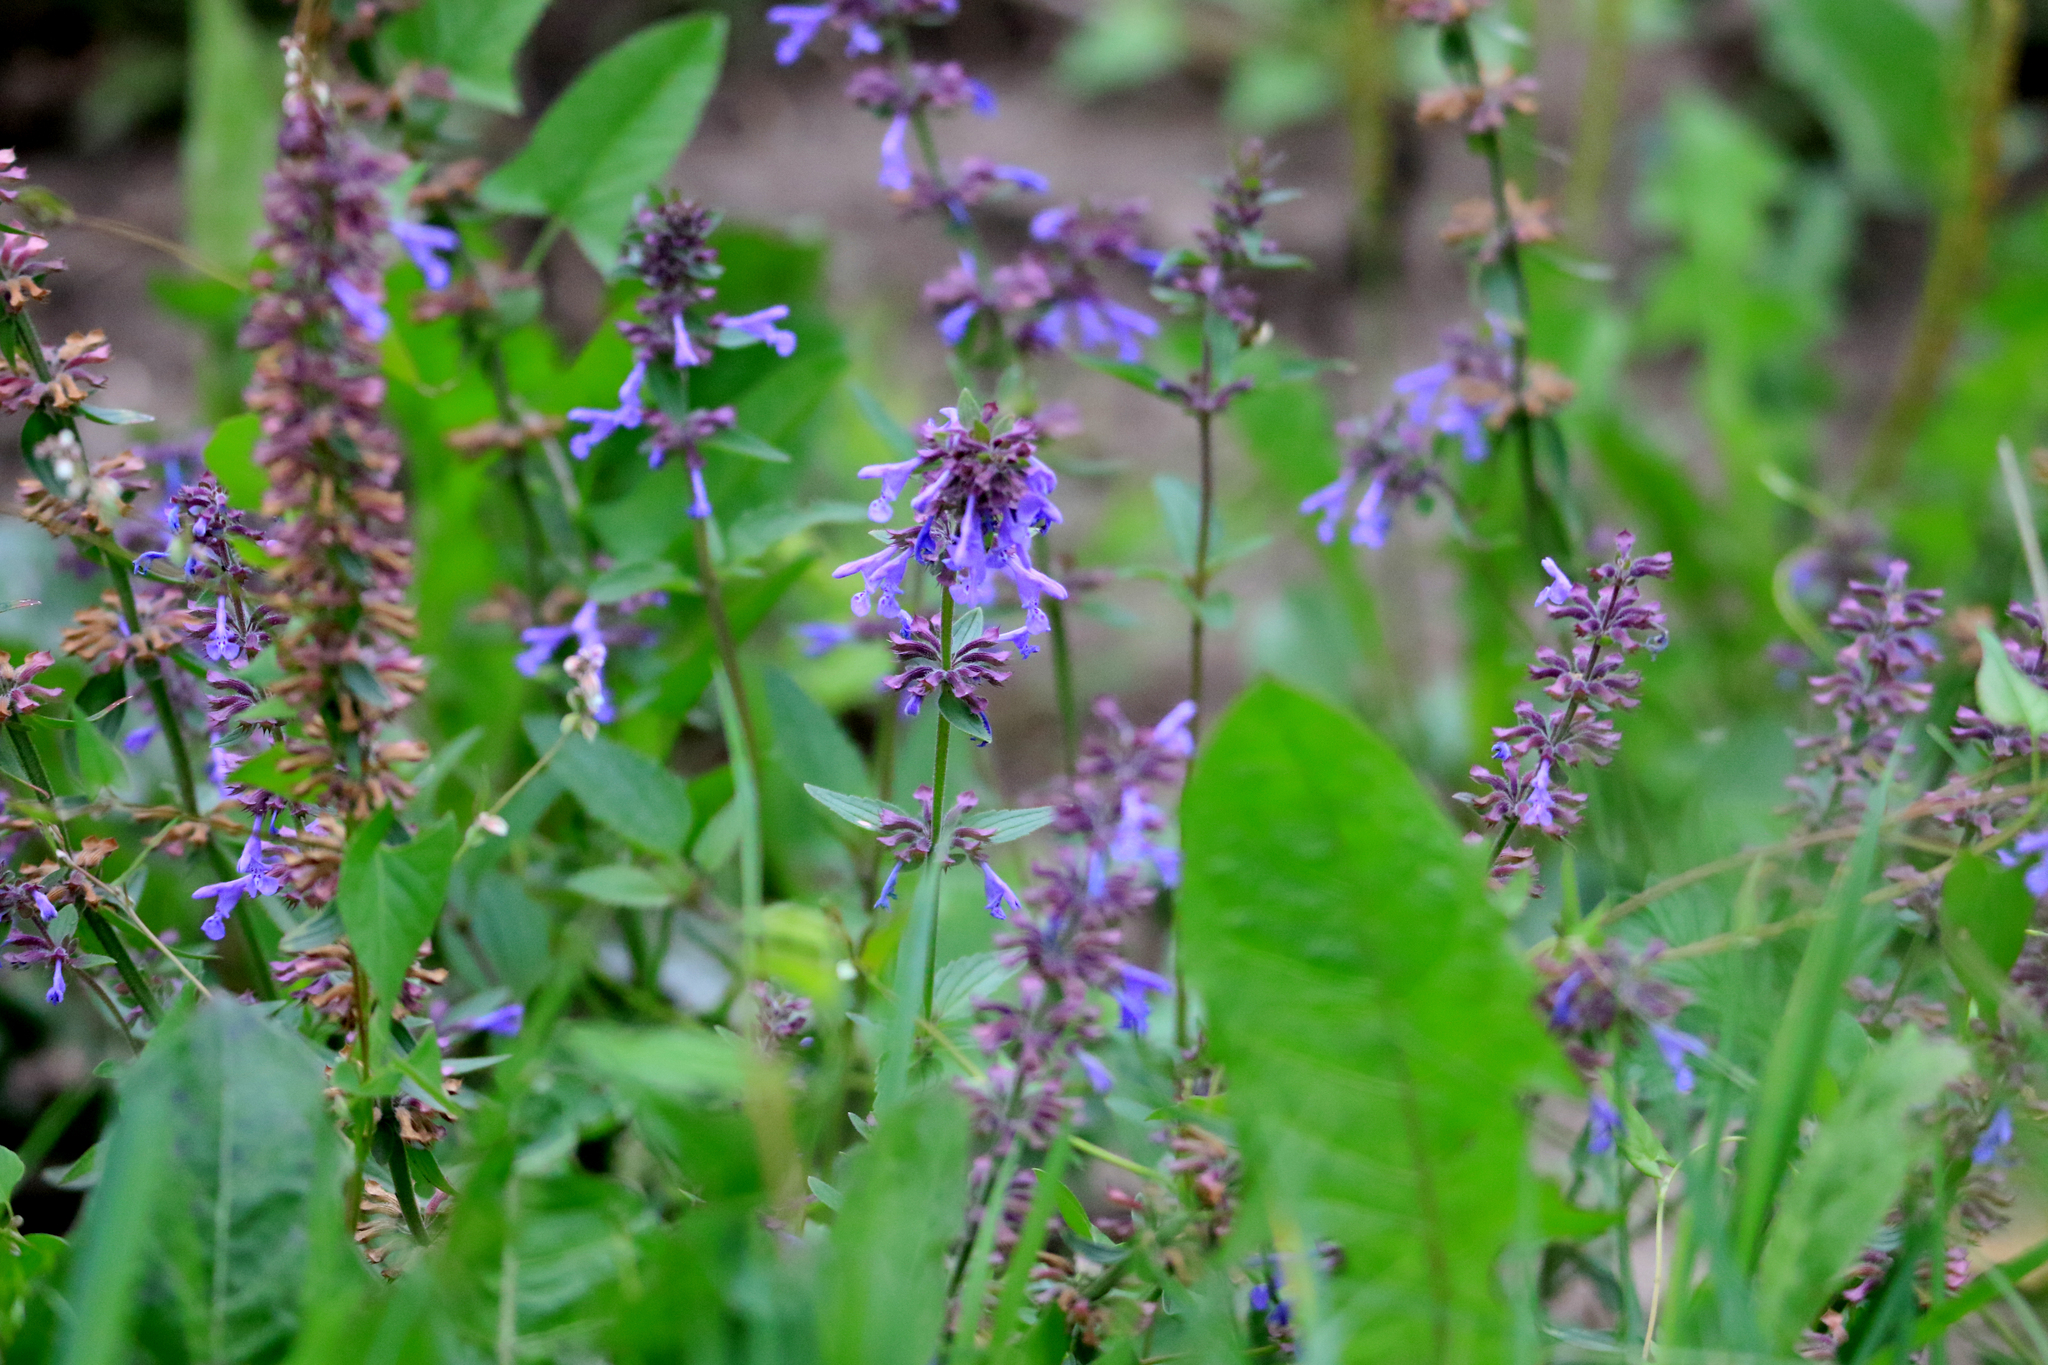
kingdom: Plantae
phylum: Tracheophyta
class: Magnoliopsida
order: Lamiales
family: Lamiaceae
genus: Dracocephalum
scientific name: Dracocephalum nutans
